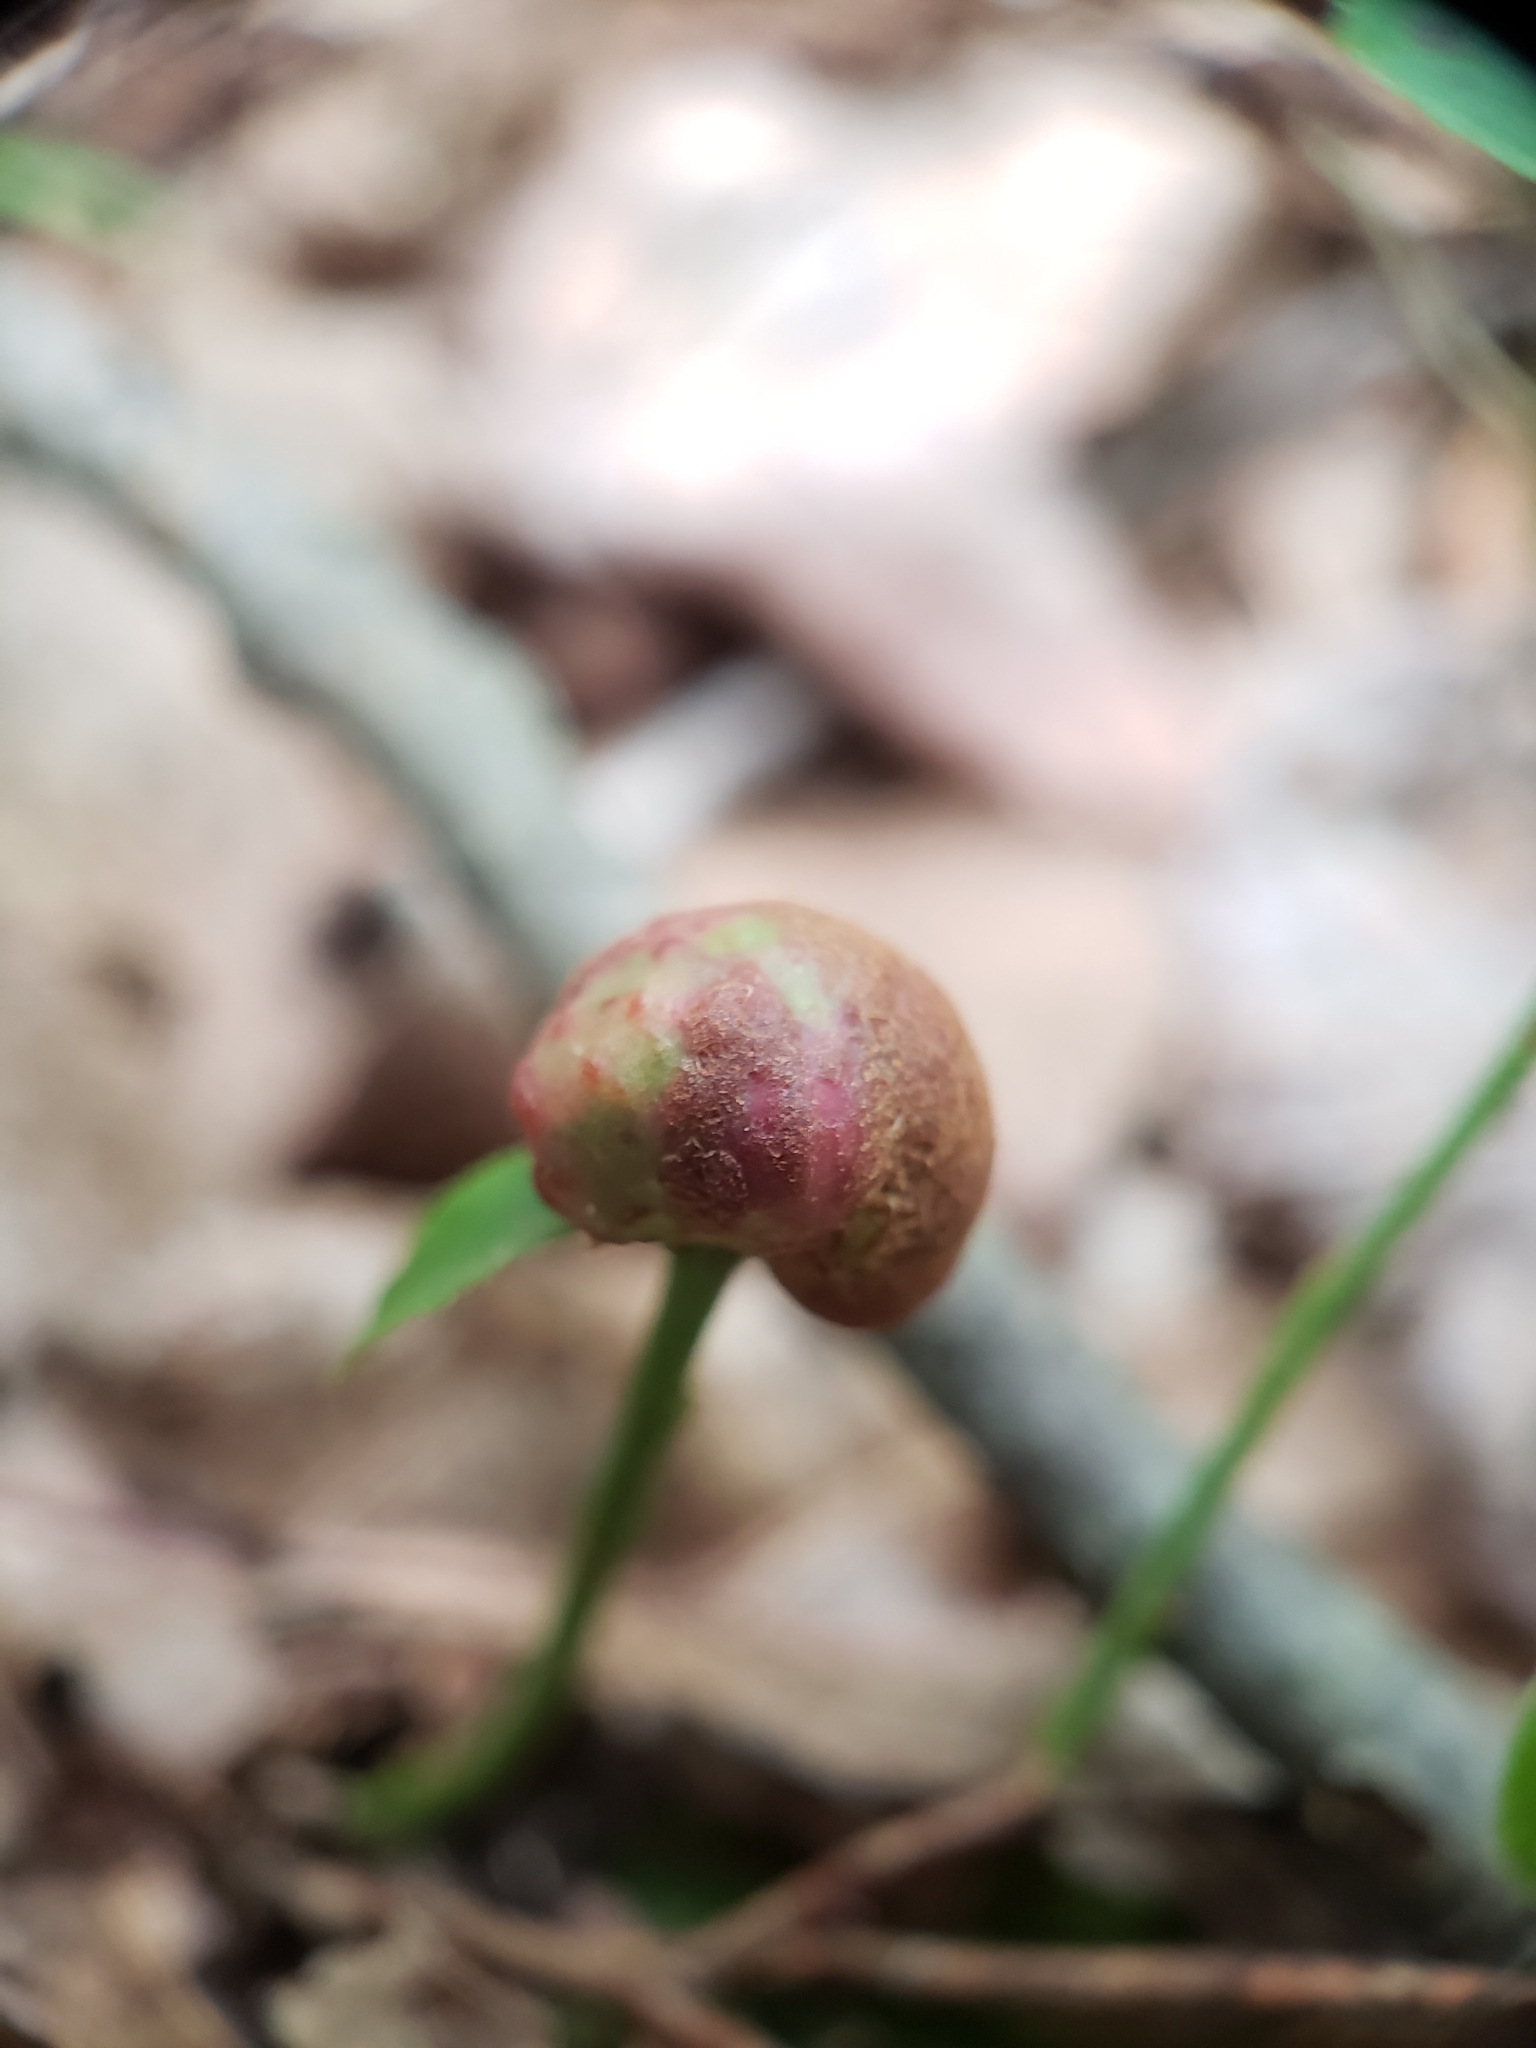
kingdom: Animalia
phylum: Arthropoda
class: Insecta
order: Hymenoptera
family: Pteromalidae
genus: Hemadas
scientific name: Hemadas nubilipennis
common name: Blueberry stem gall wasp
